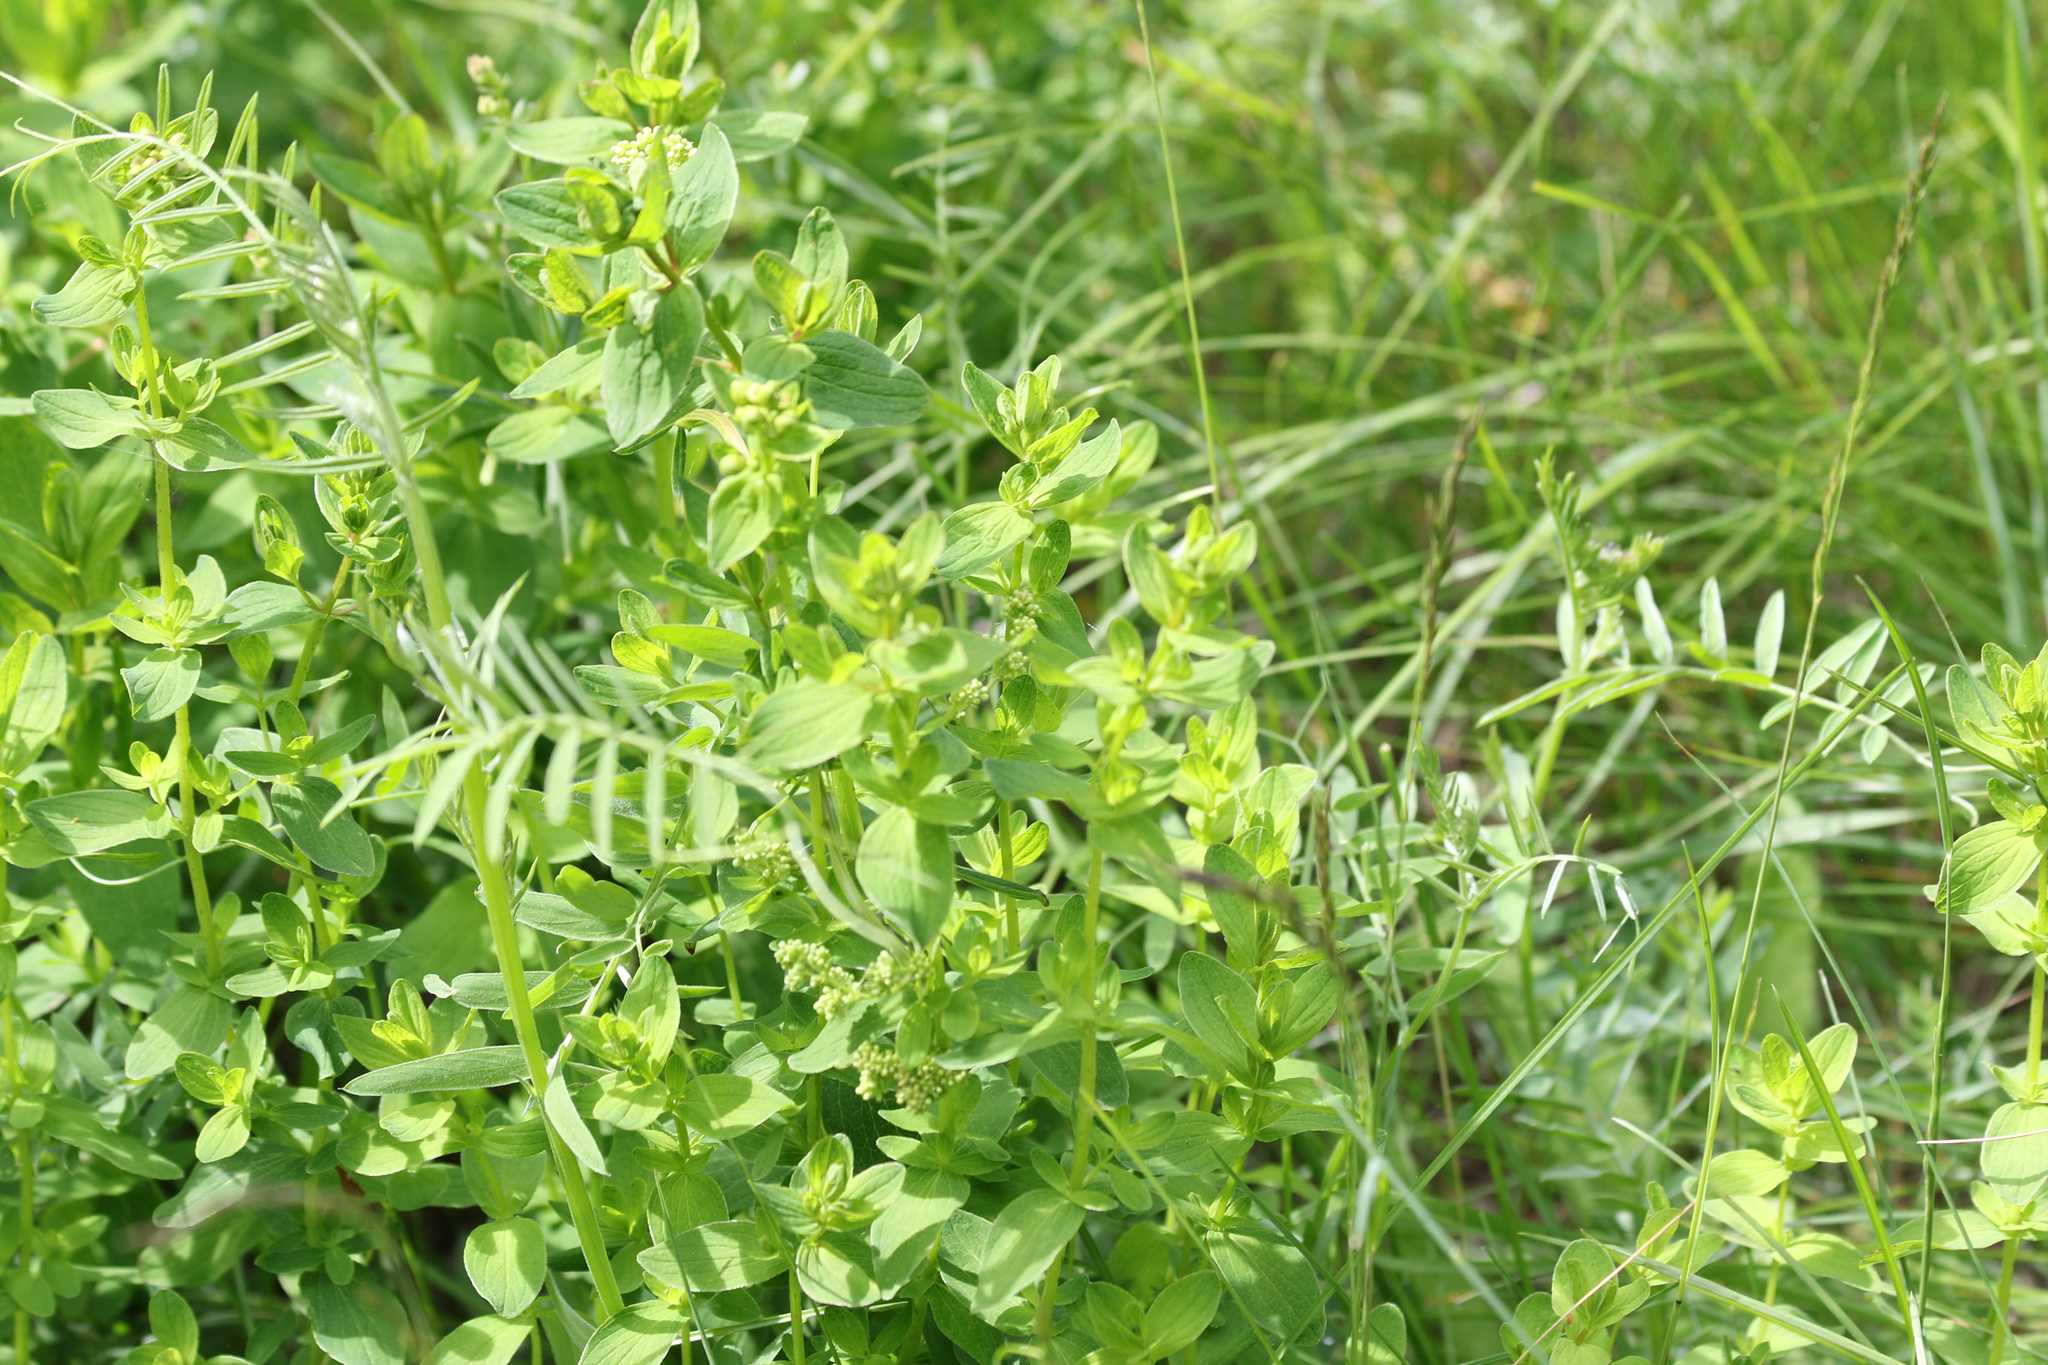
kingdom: Plantae
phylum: Tracheophyta
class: Magnoliopsida
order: Malpighiales
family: Hypericaceae
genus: Hypericum
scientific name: Hypericum maculatum
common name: Imperforate st. john's-wort
